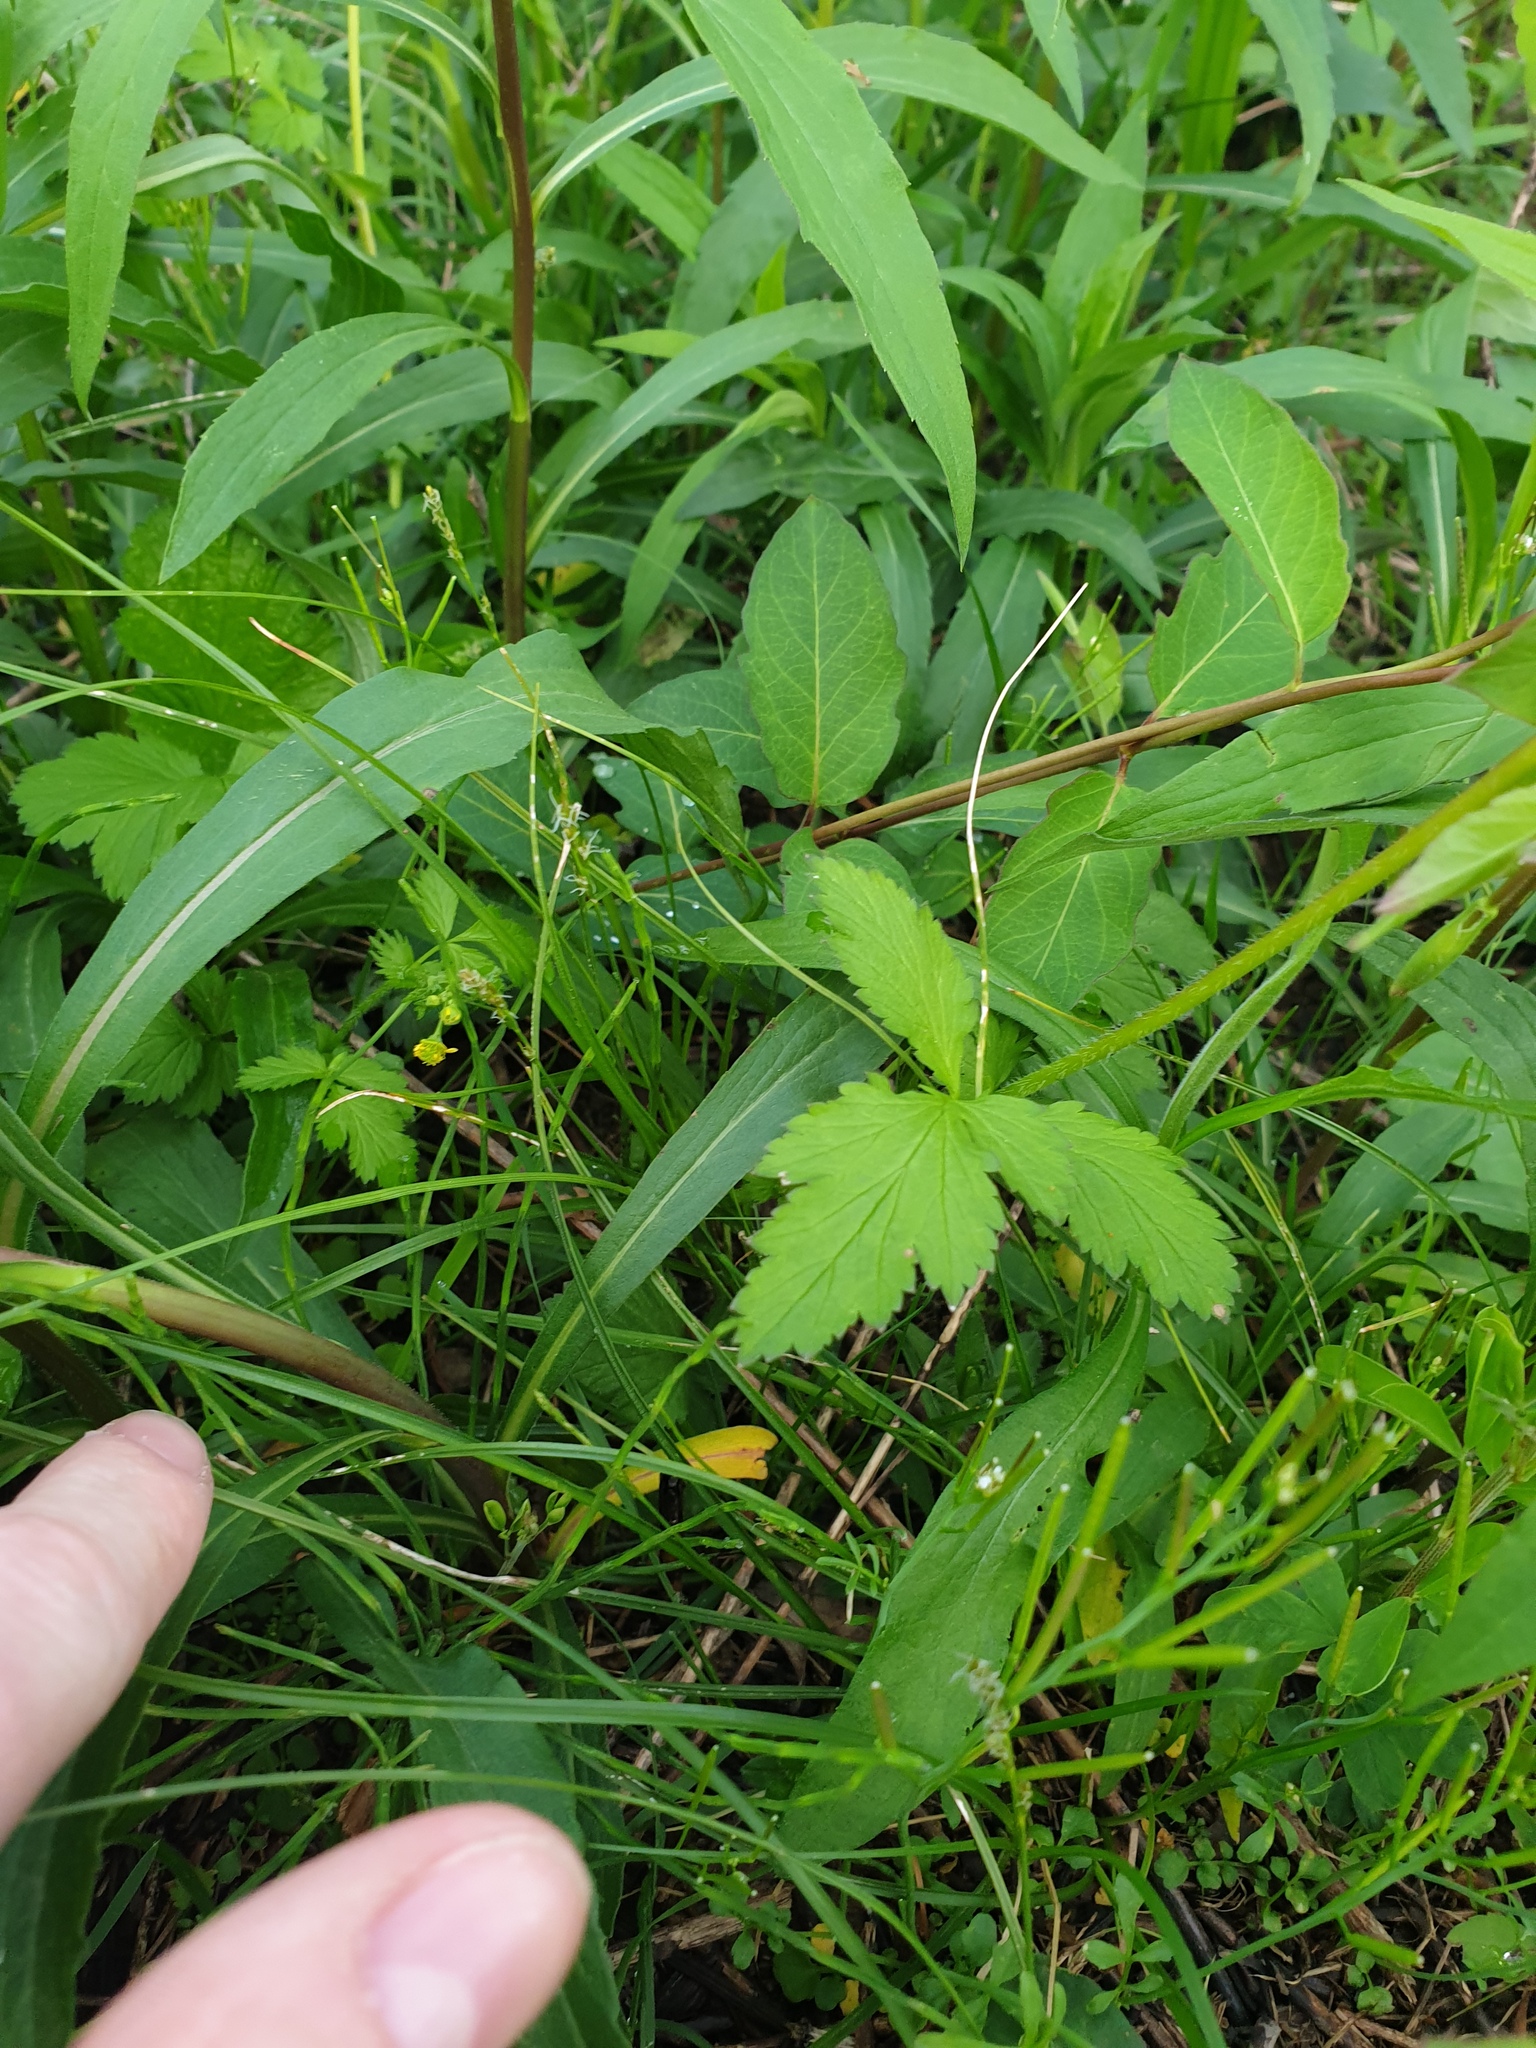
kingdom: Plantae
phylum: Tracheophyta
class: Magnoliopsida
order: Rosales
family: Rosaceae
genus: Geum
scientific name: Geum vernum
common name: Spring avens
